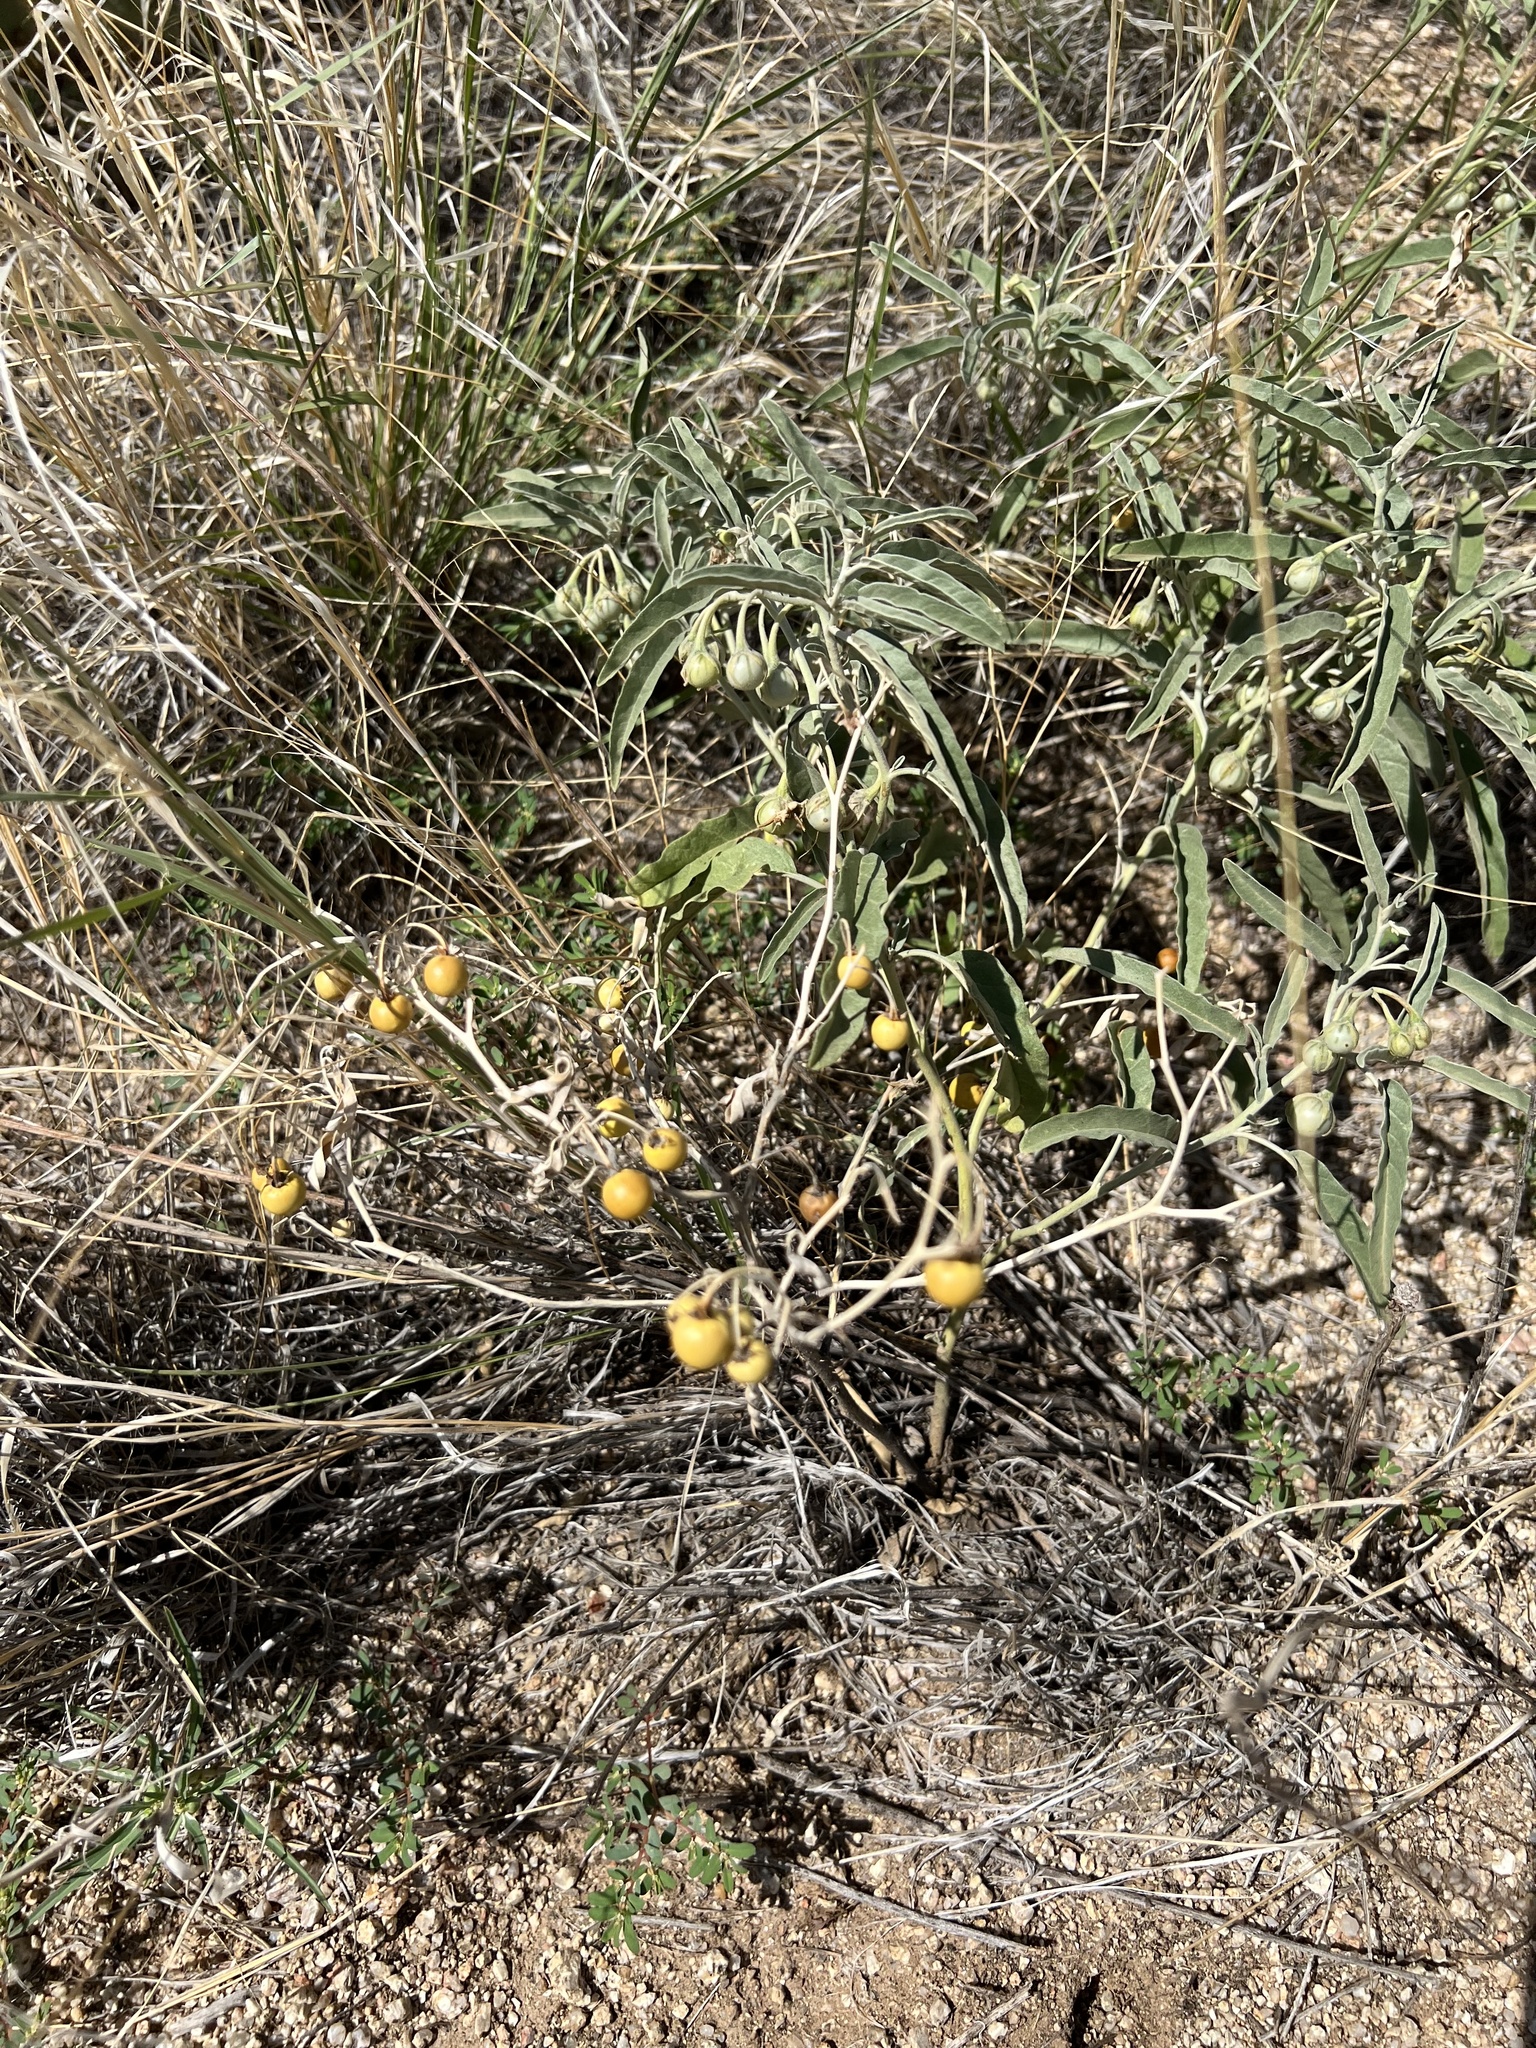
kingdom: Plantae
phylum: Tracheophyta
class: Magnoliopsida
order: Solanales
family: Solanaceae
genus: Solanum
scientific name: Solanum elaeagnifolium
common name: Silverleaf nightshade
